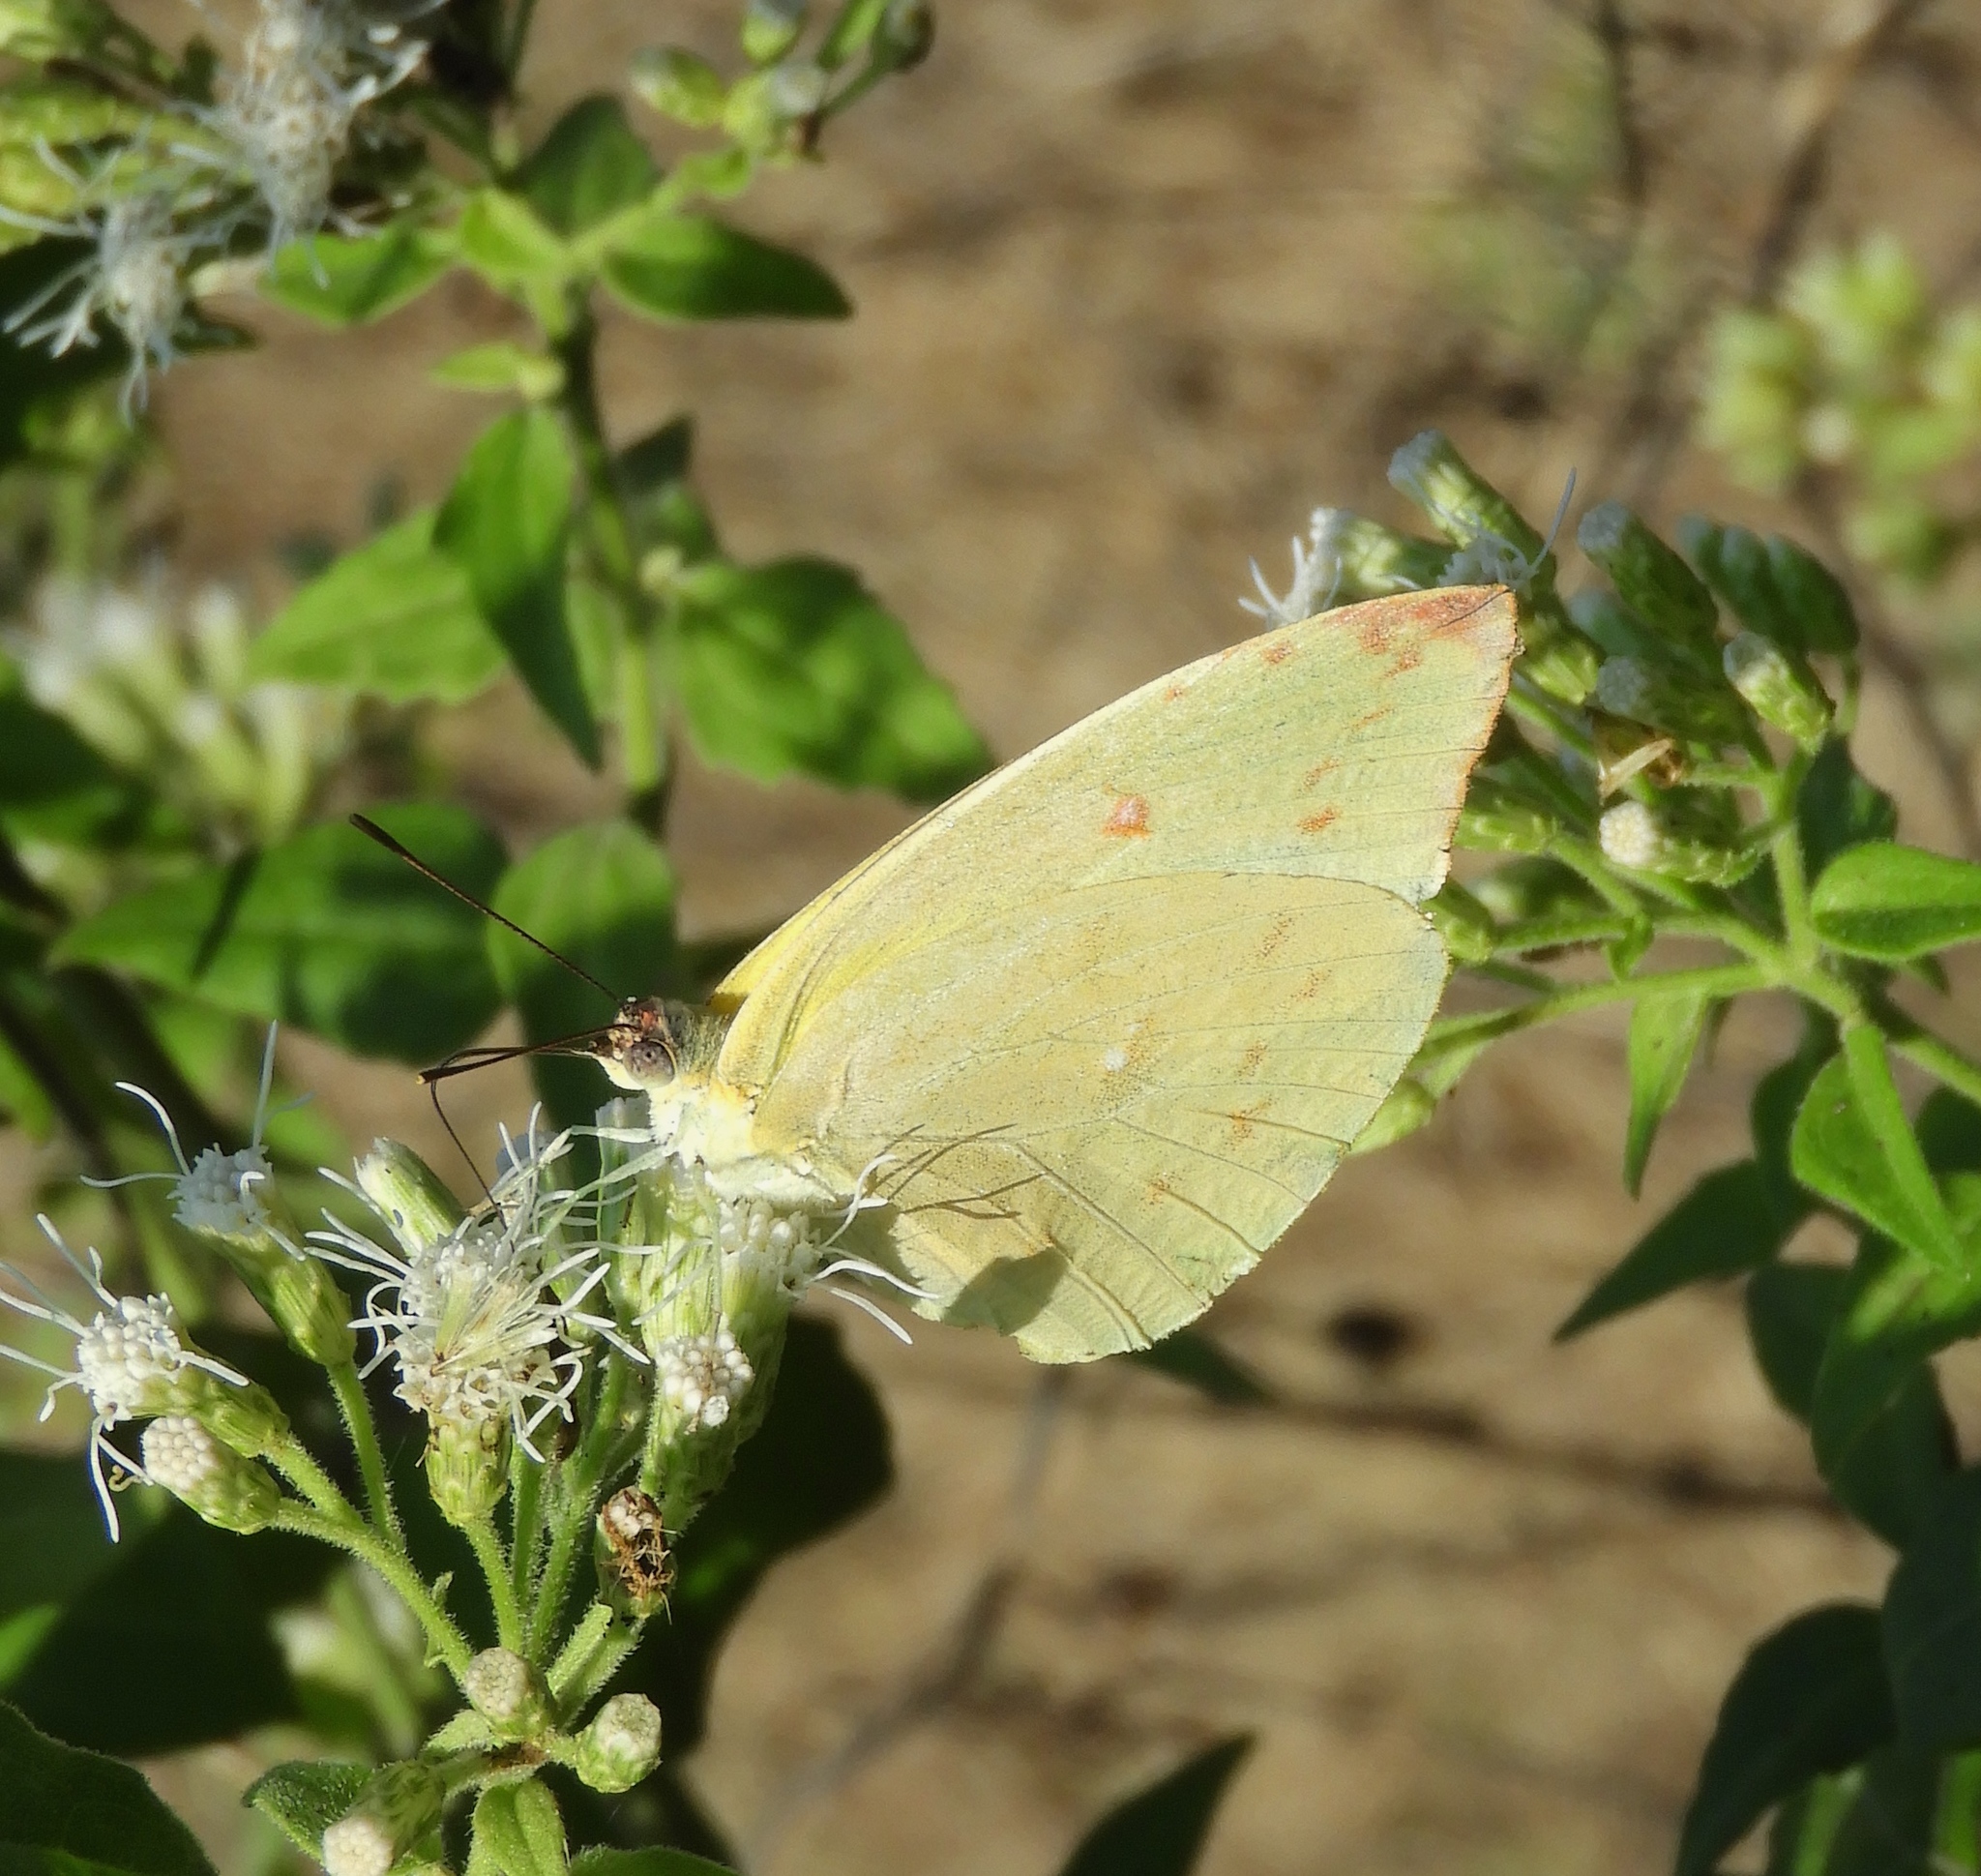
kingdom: Animalia
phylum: Arthropoda
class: Insecta
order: Lepidoptera
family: Pieridae
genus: Aphrissa
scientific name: Aphrissa statira
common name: Statira sulphur
